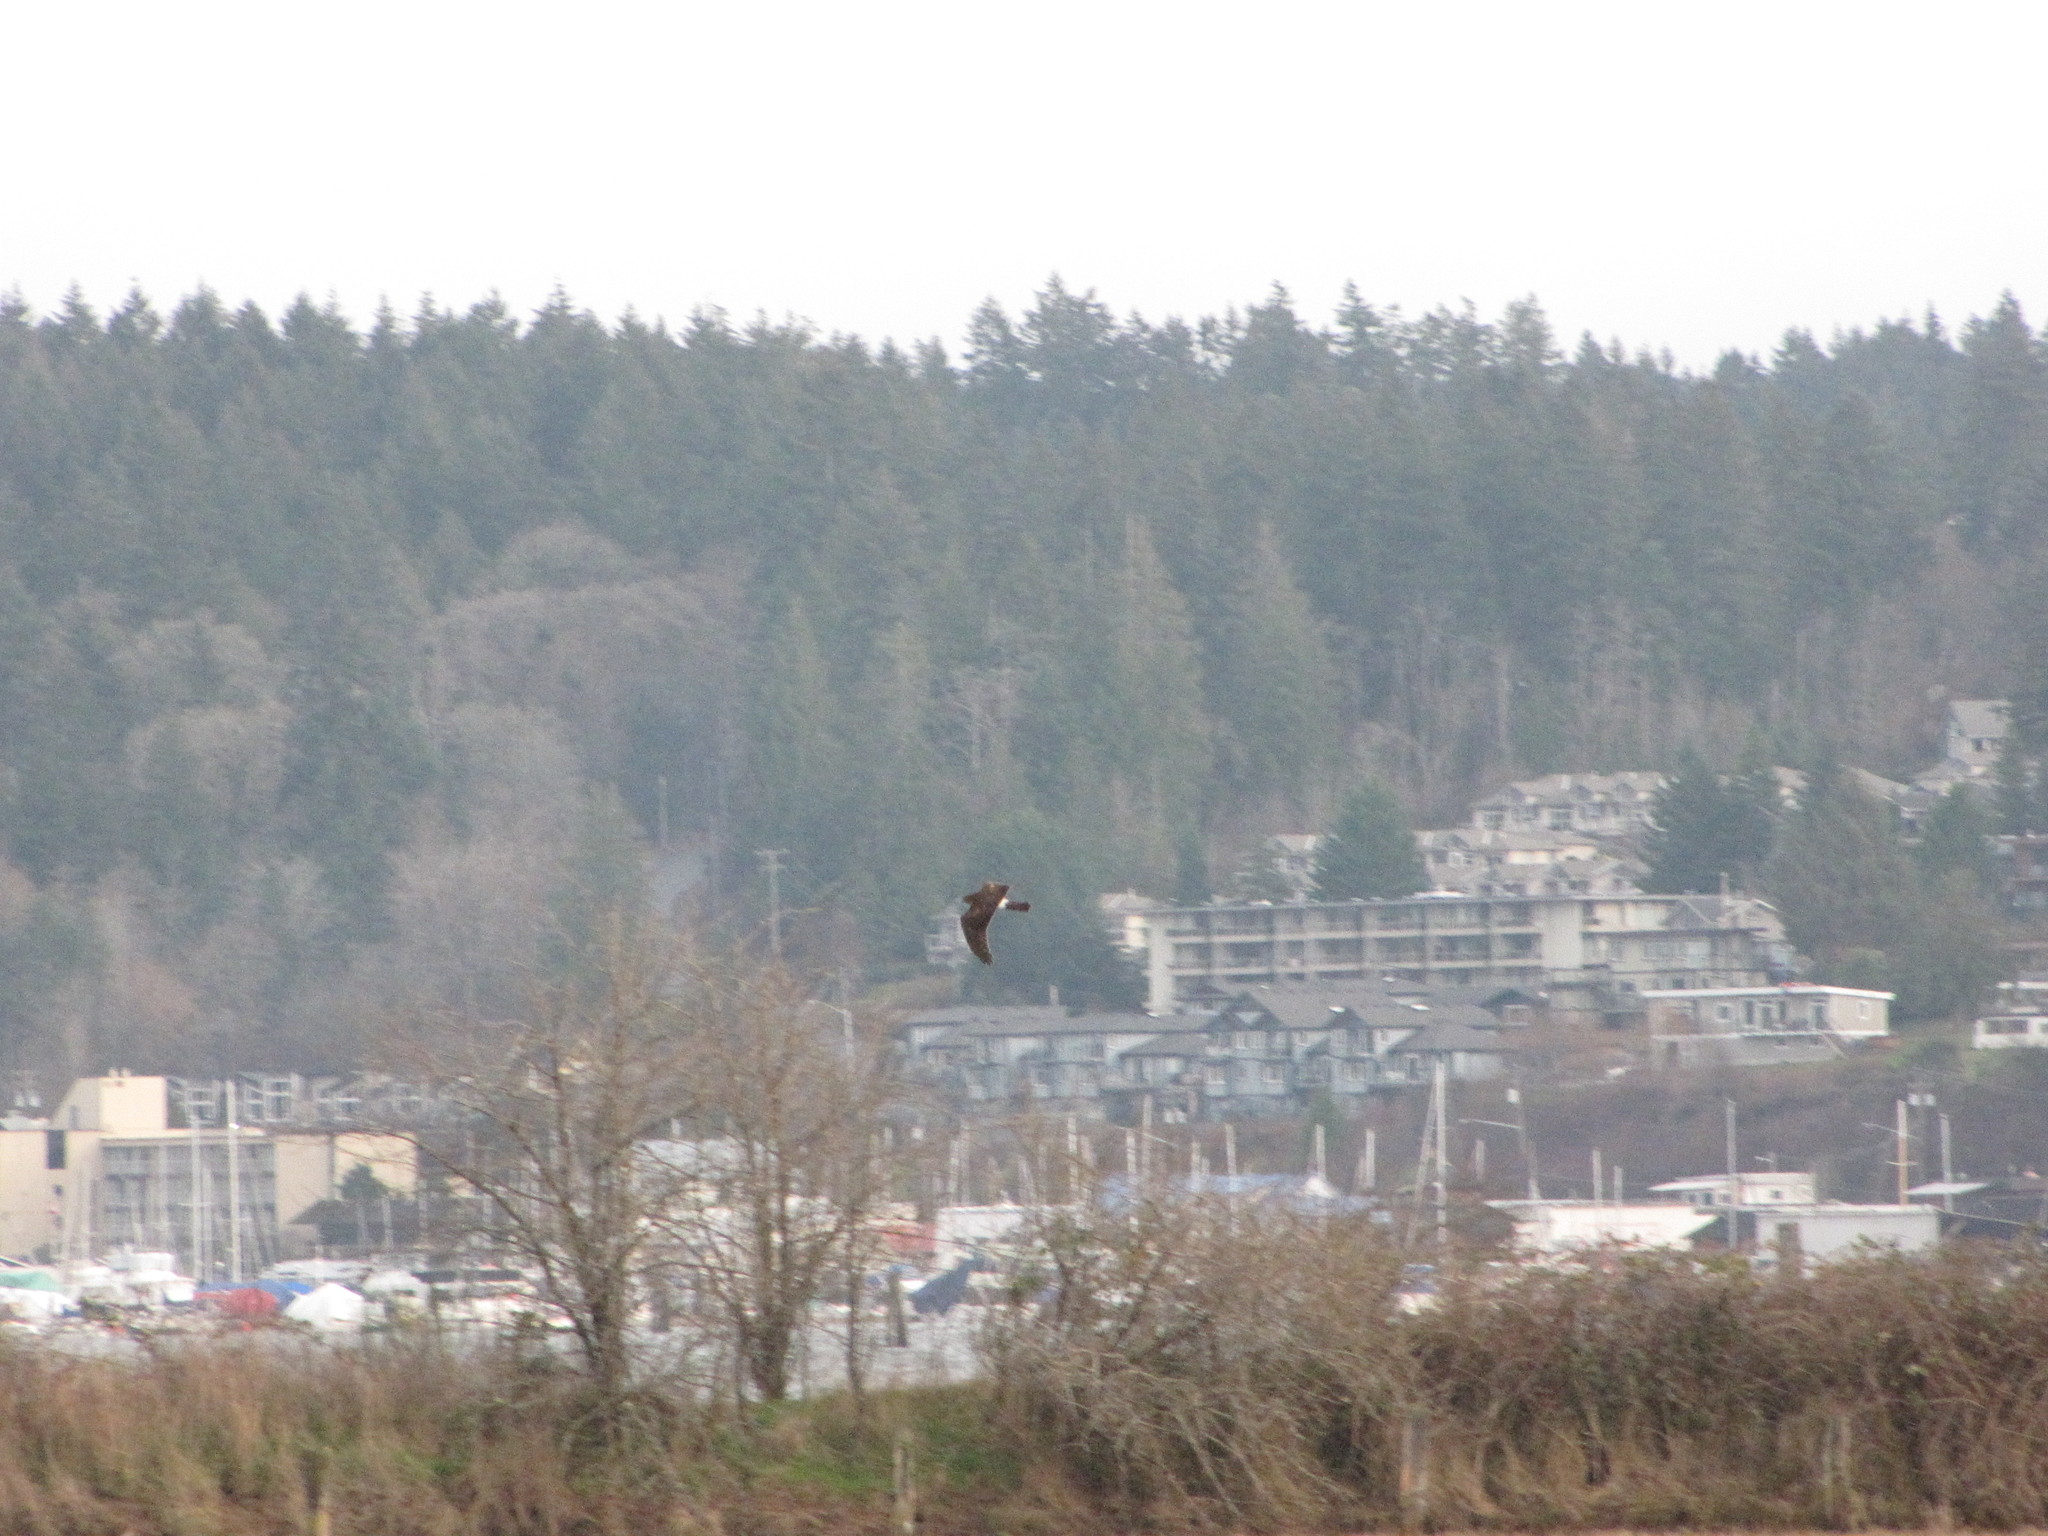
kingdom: Animalia
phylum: Chordata
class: Aves
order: Accipitriformes
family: Accipitridae
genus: Circus
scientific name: Circus cyaneus
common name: Hen harrier
